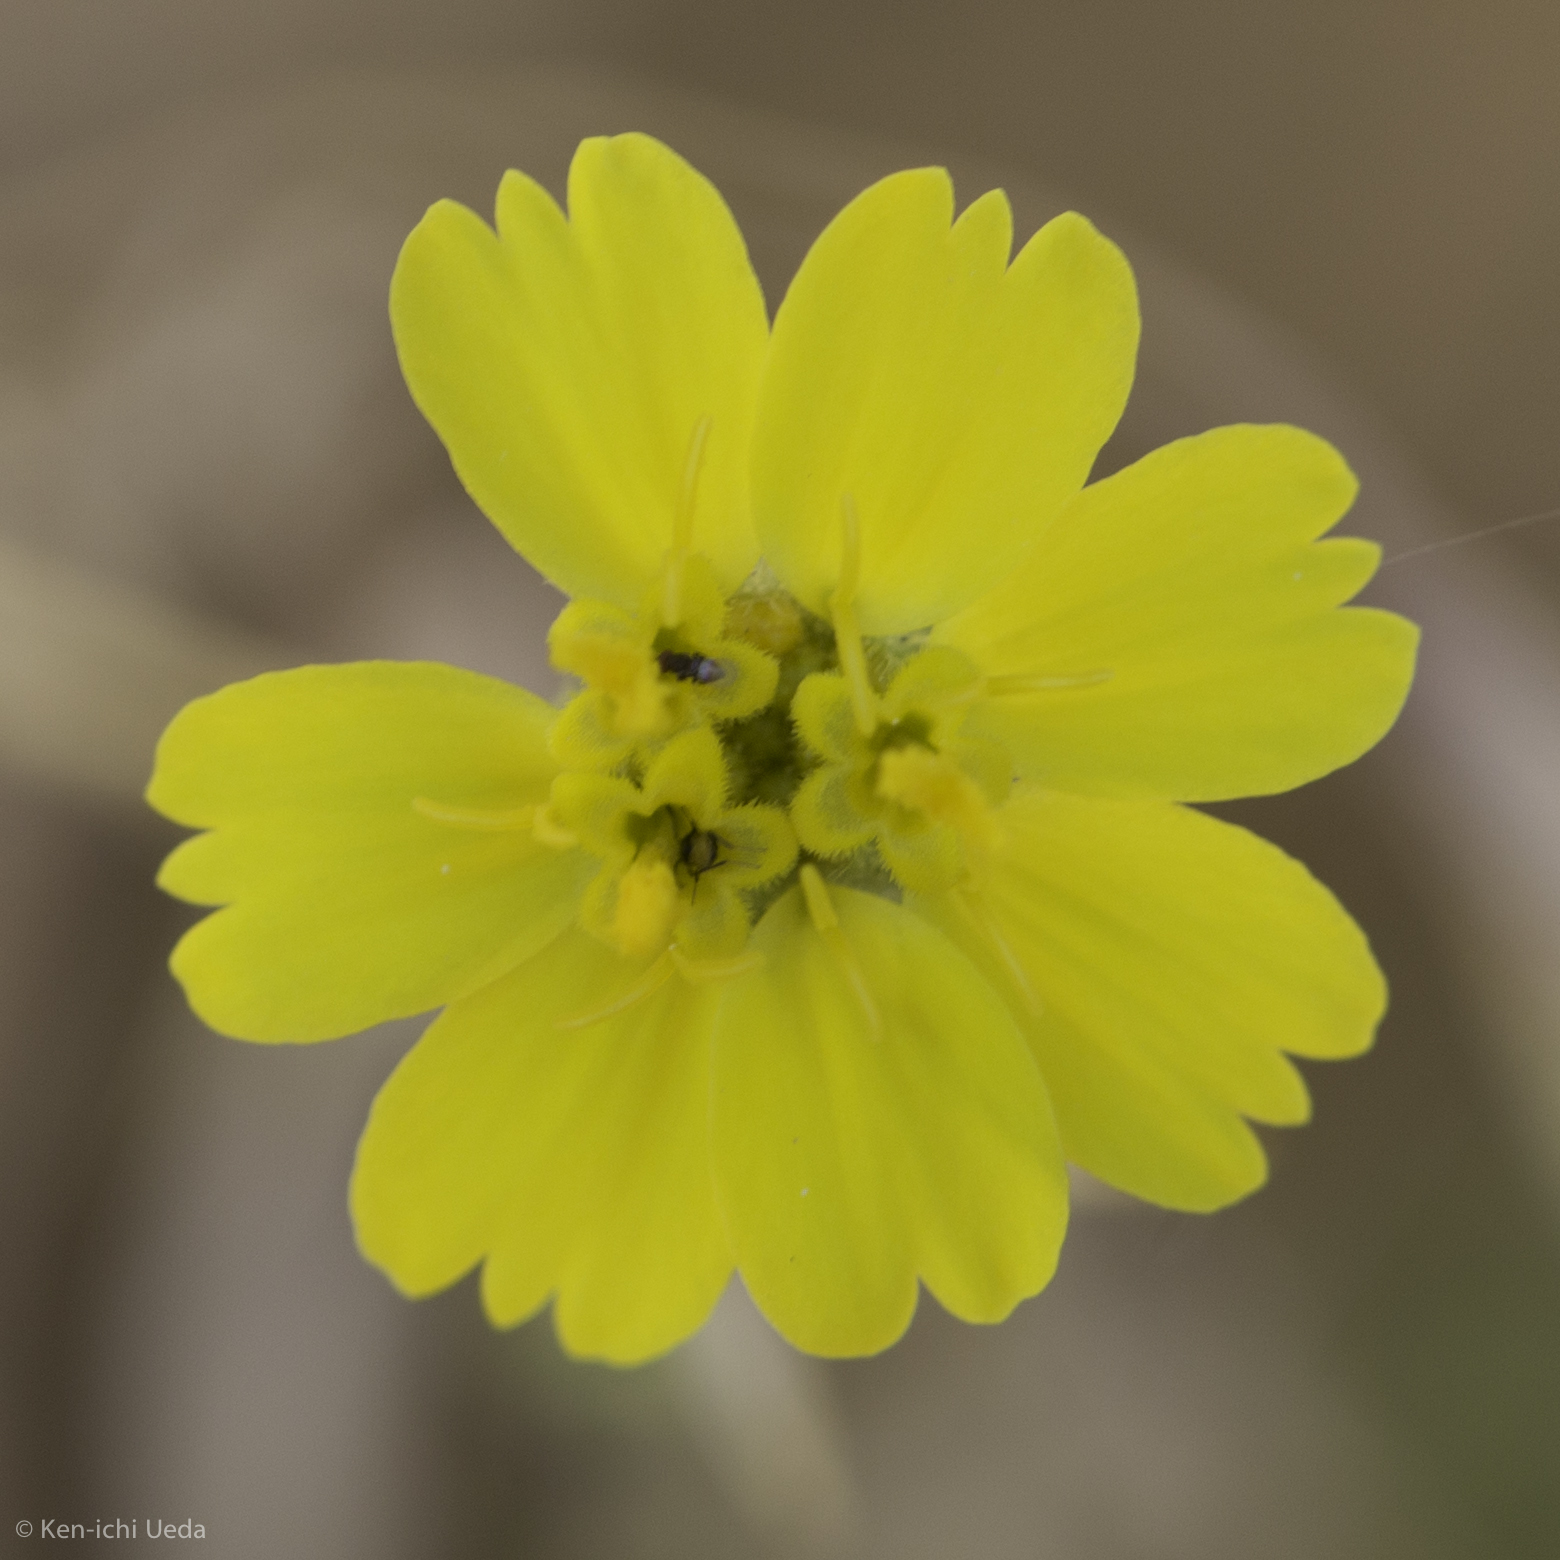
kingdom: Plantae
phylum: Tracheophyta
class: Magnoliopsida
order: Asterales
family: Asteraceae
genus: Deinandra
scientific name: Deinandra arida
